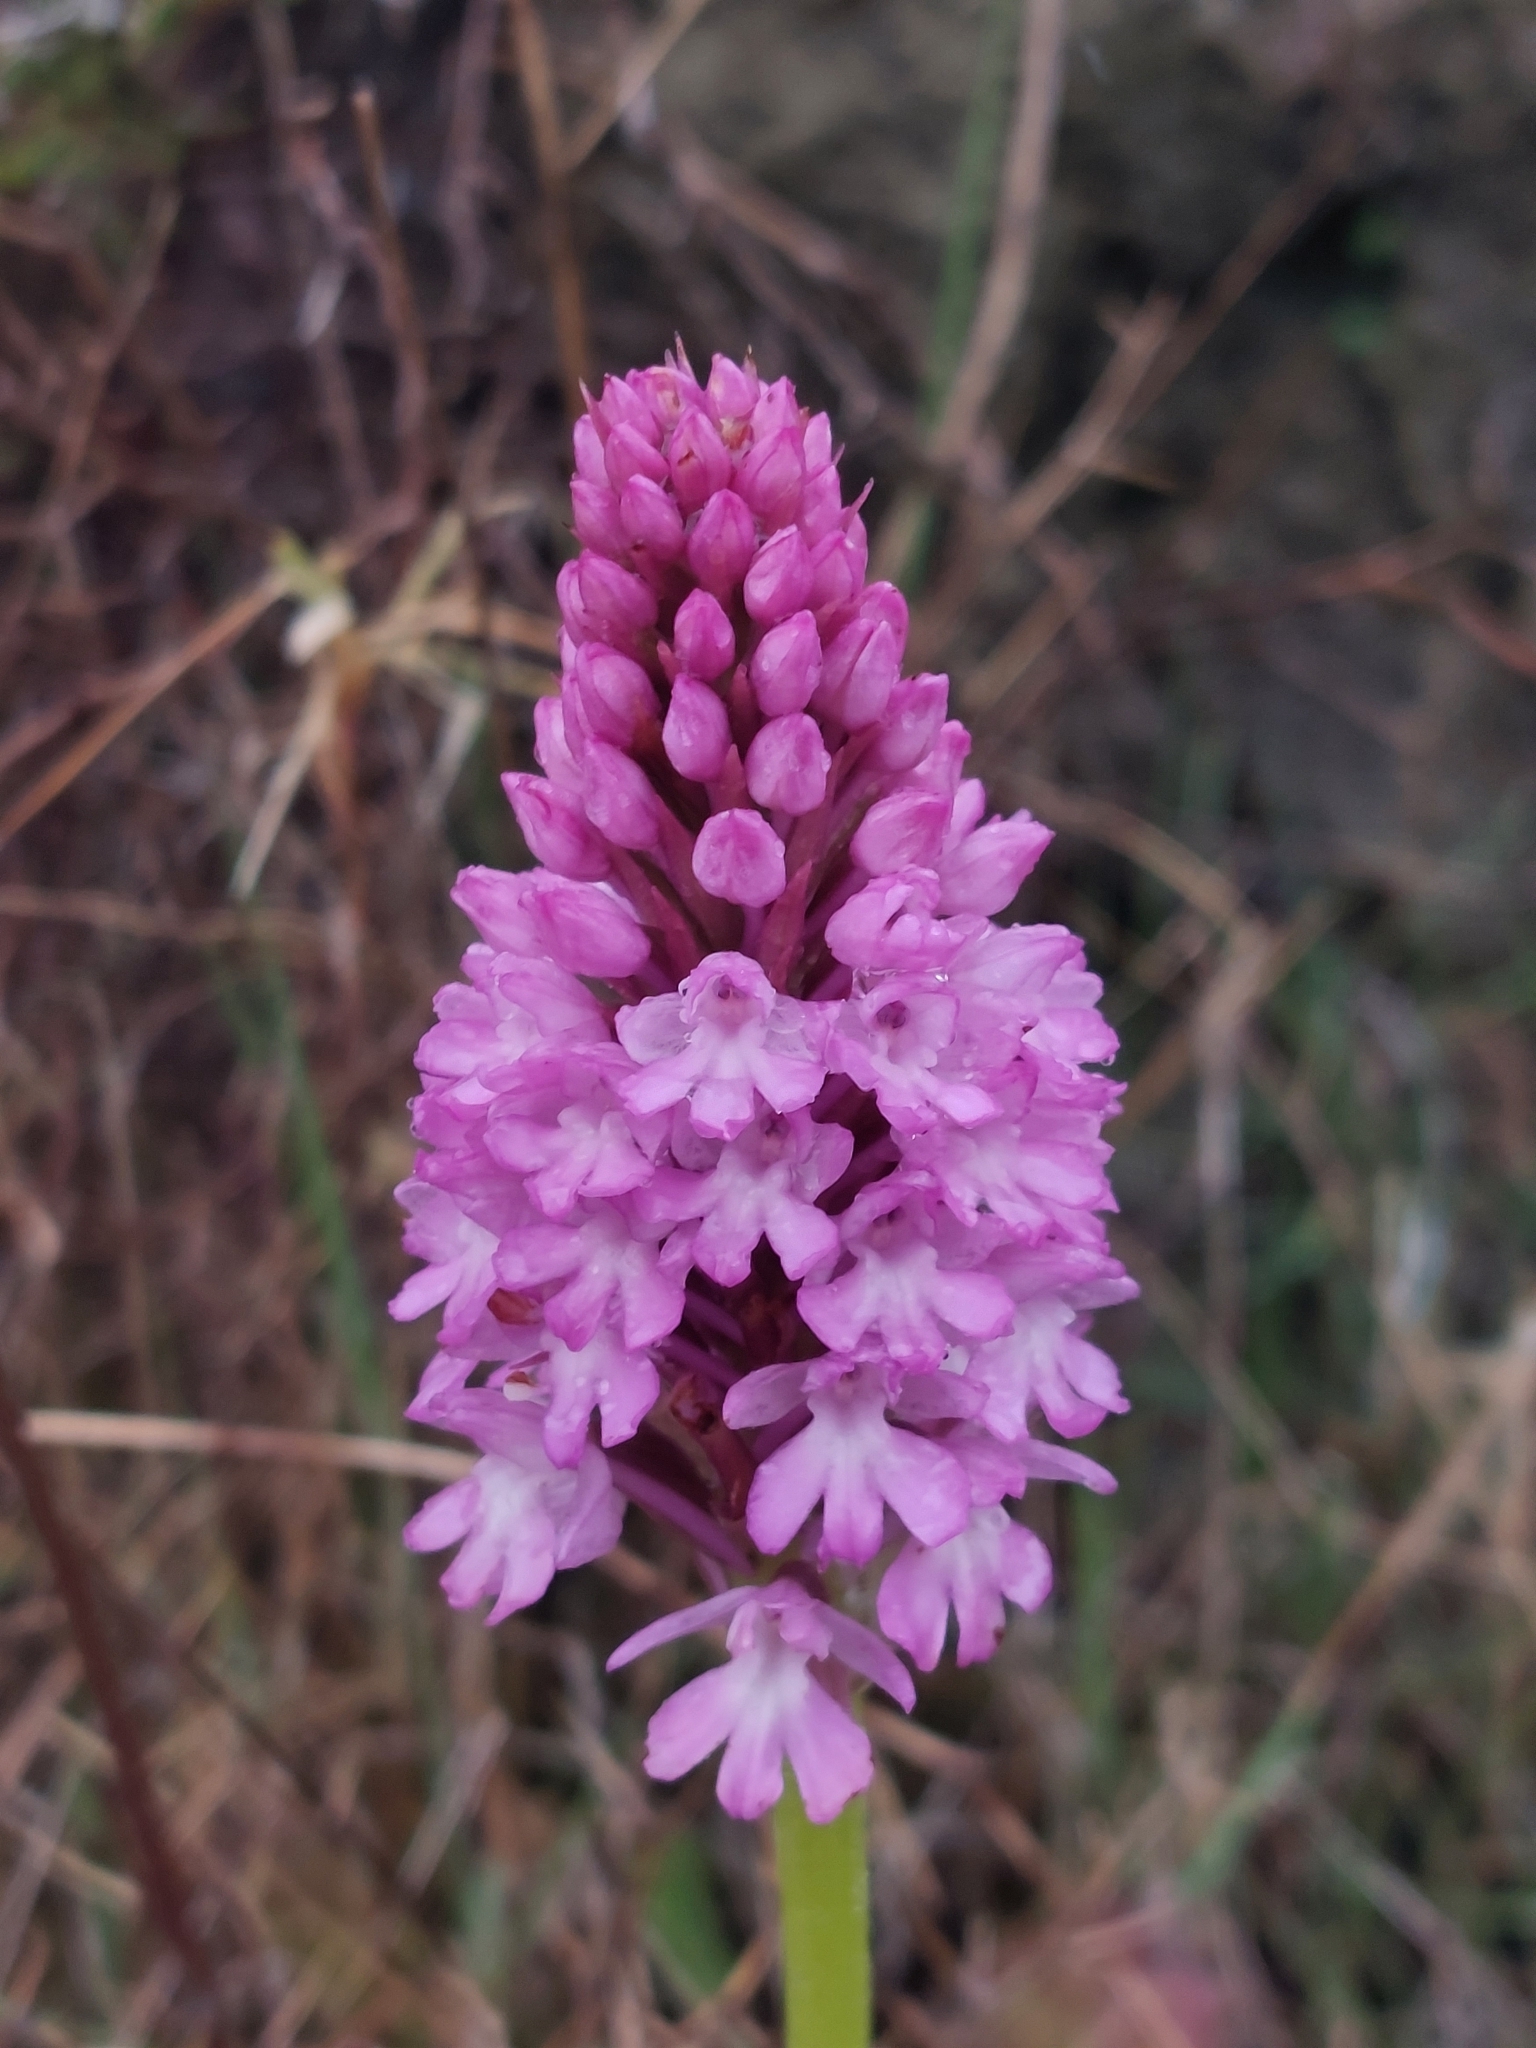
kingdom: Plantae
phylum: Tracheophyta
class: Liliopsida
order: Asparagales
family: Orchidaceae
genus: Anacamptis
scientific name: Anacamptis pyramidalis
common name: Pyramidal orchid
